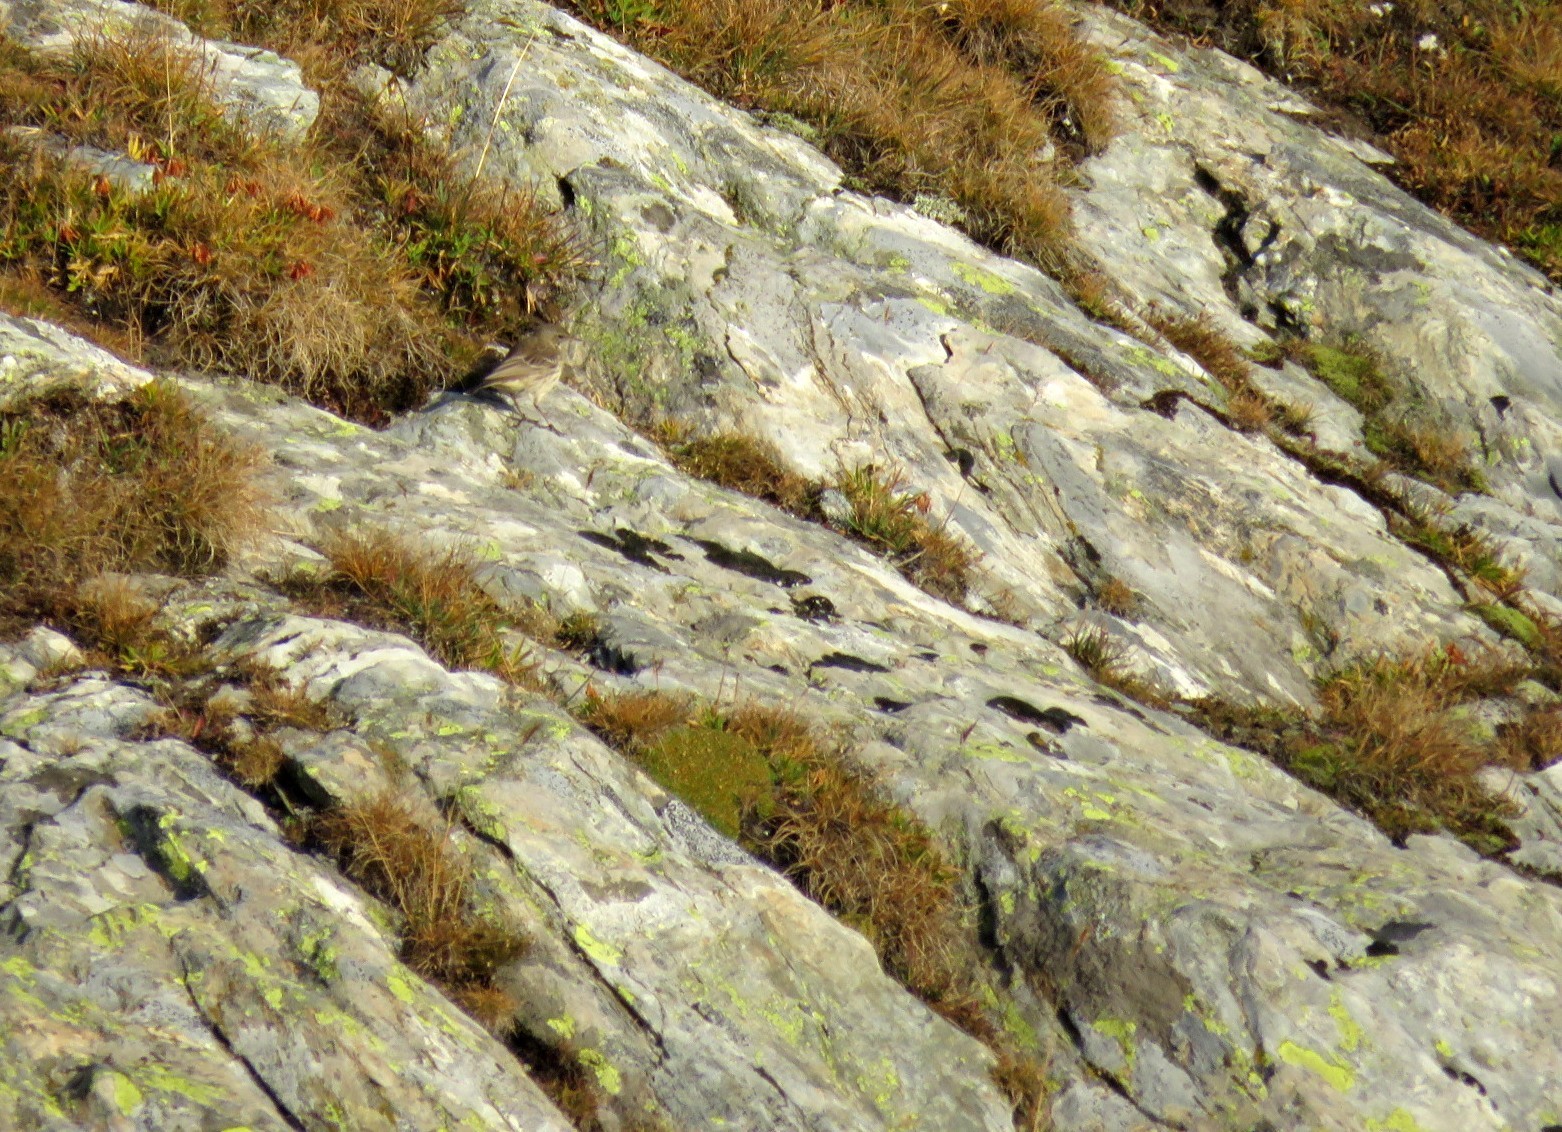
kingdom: Animalia
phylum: Chordata
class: Aves
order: Passeriformes
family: Motacillidae
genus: Anthus
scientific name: Anthus spinoletta
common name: Water pipit
